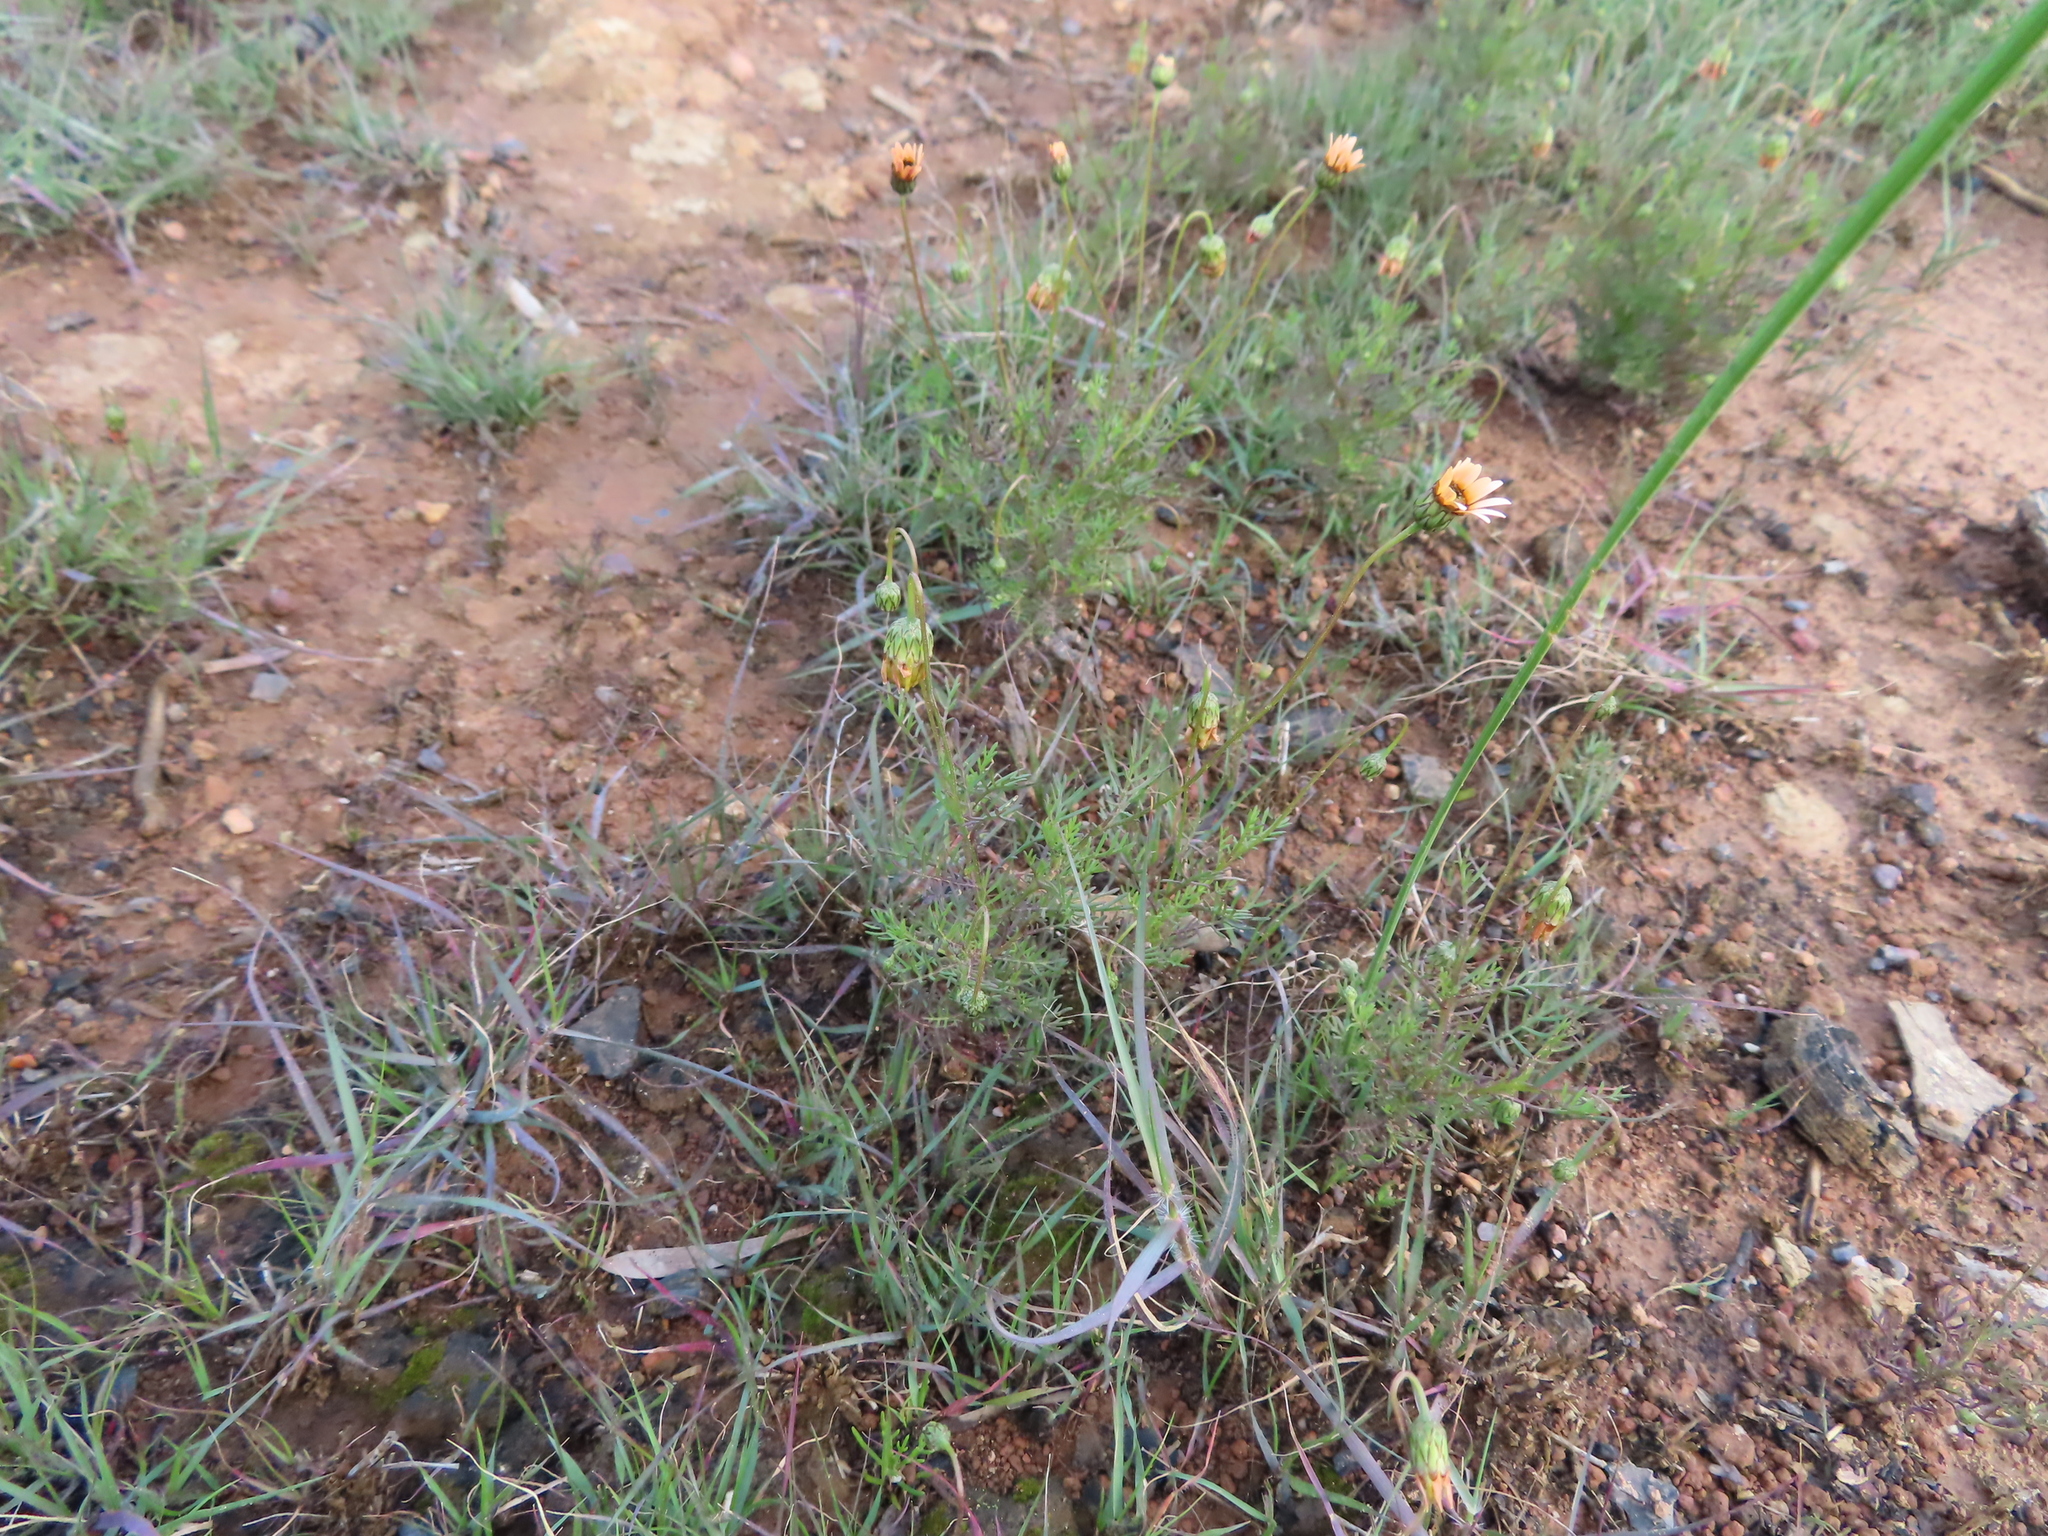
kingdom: Plantae
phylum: Tracheophyta
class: Magnoliopsida
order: Asterales
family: Asteraceae
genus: Ursinia
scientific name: Ursinia anthemoides
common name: Ursinia
